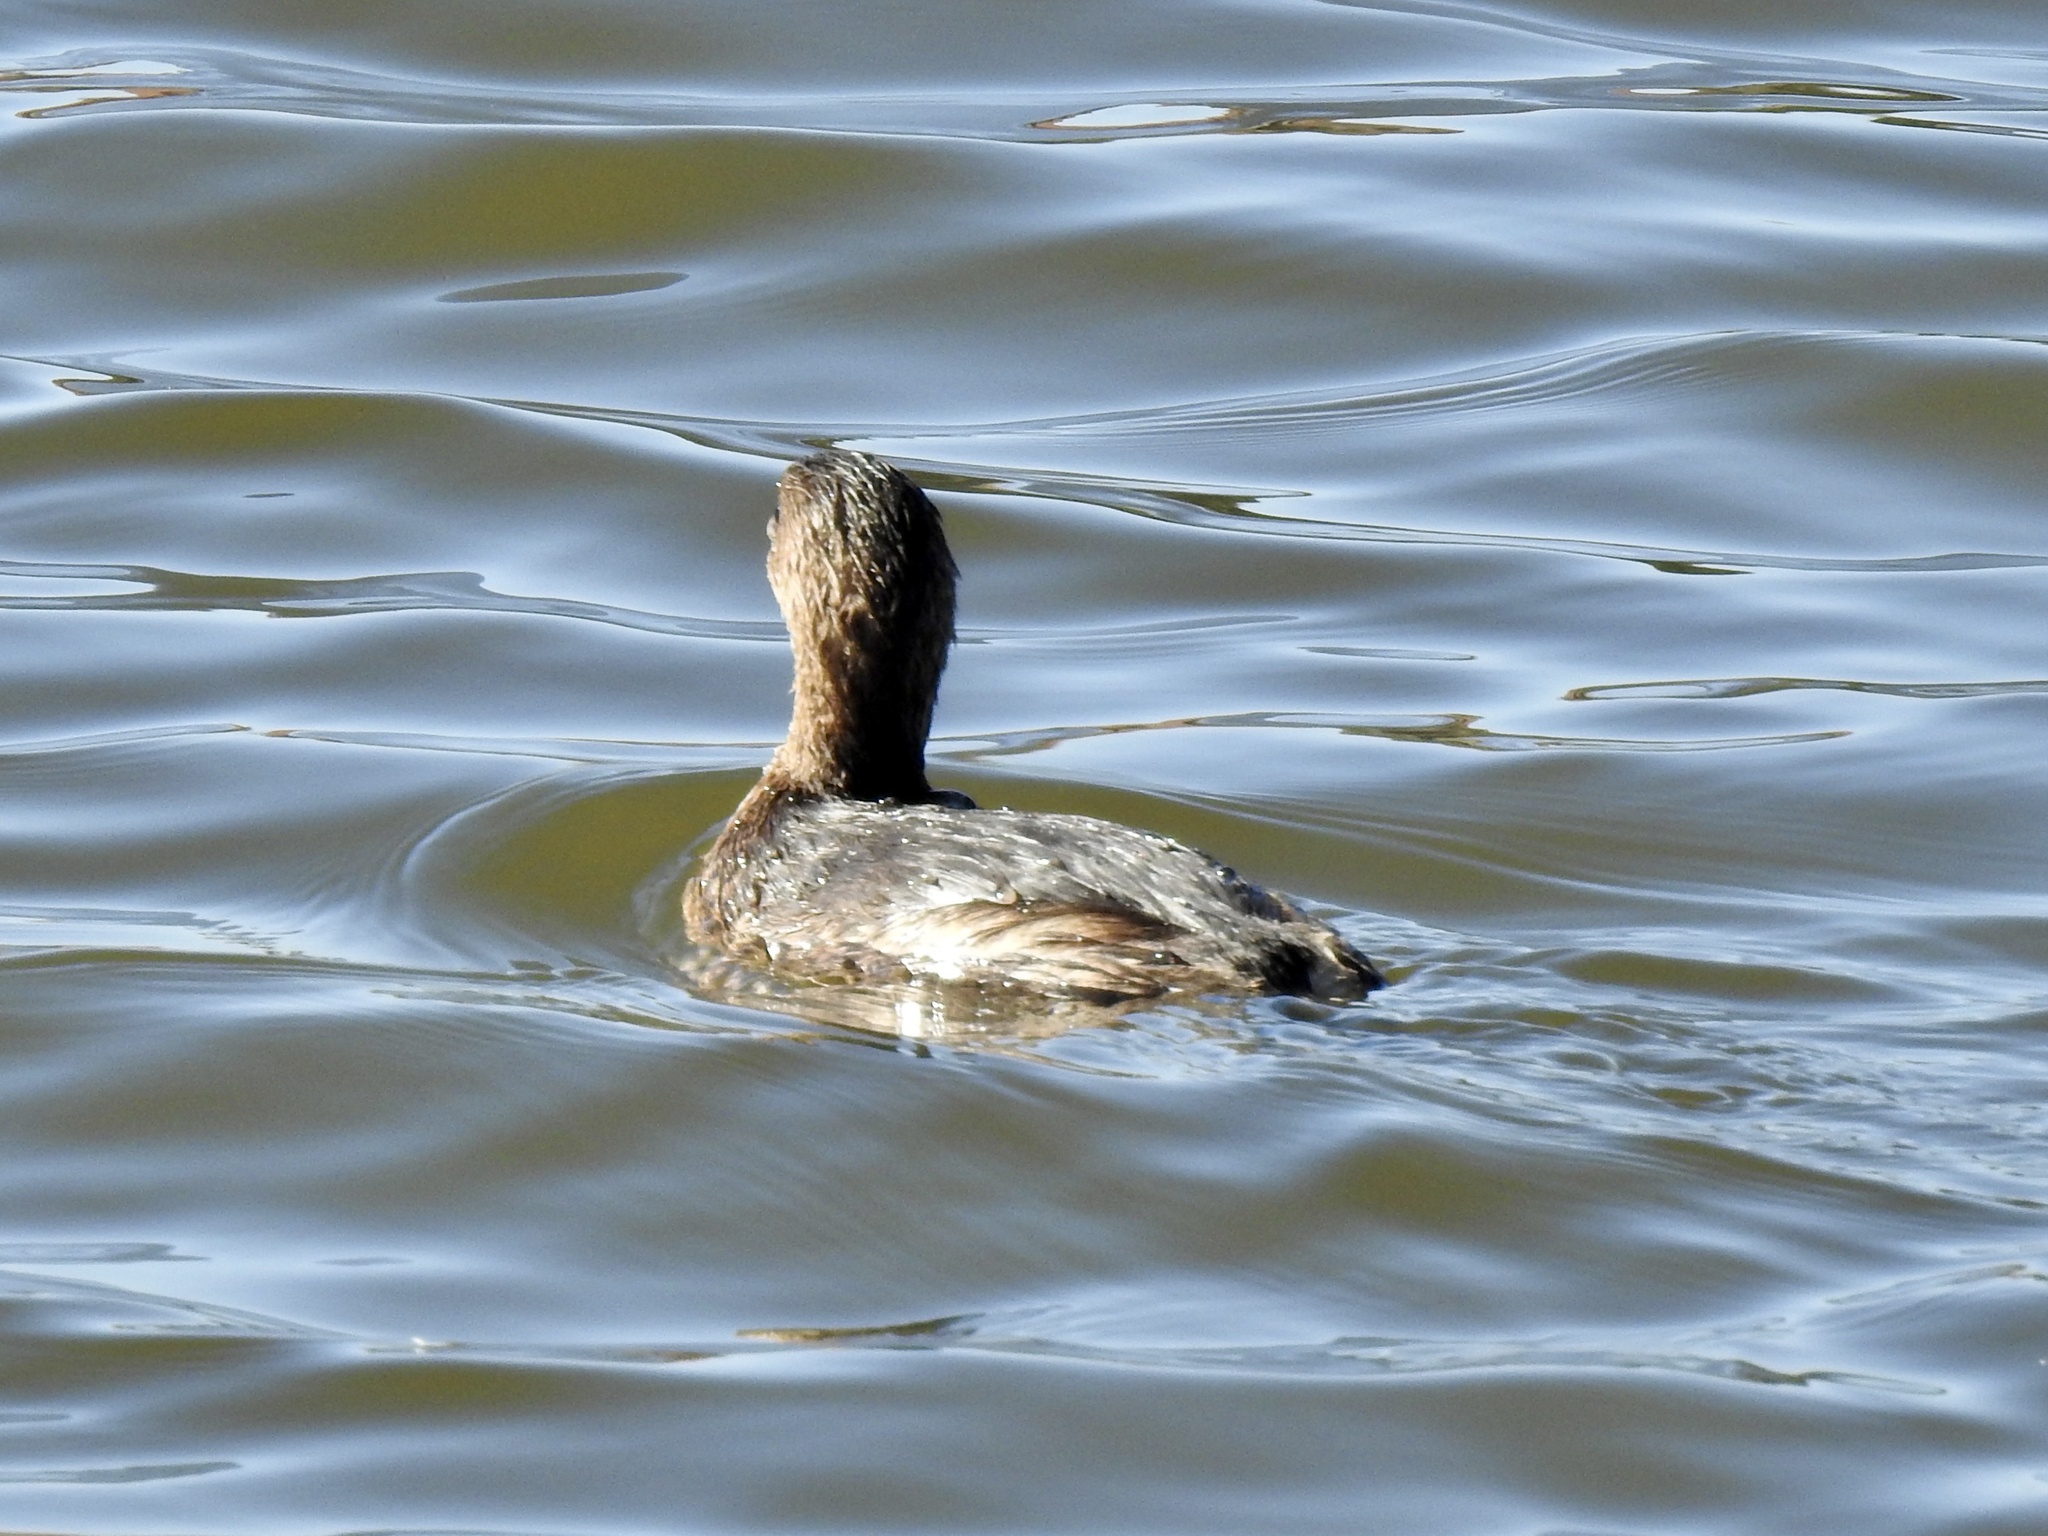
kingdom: Animalia
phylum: Chordata
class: Aves
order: Podicipediformes
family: Podicipedidae
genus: Podilymbus
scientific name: Podilymbus podiceps
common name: Pied-billed grebe
